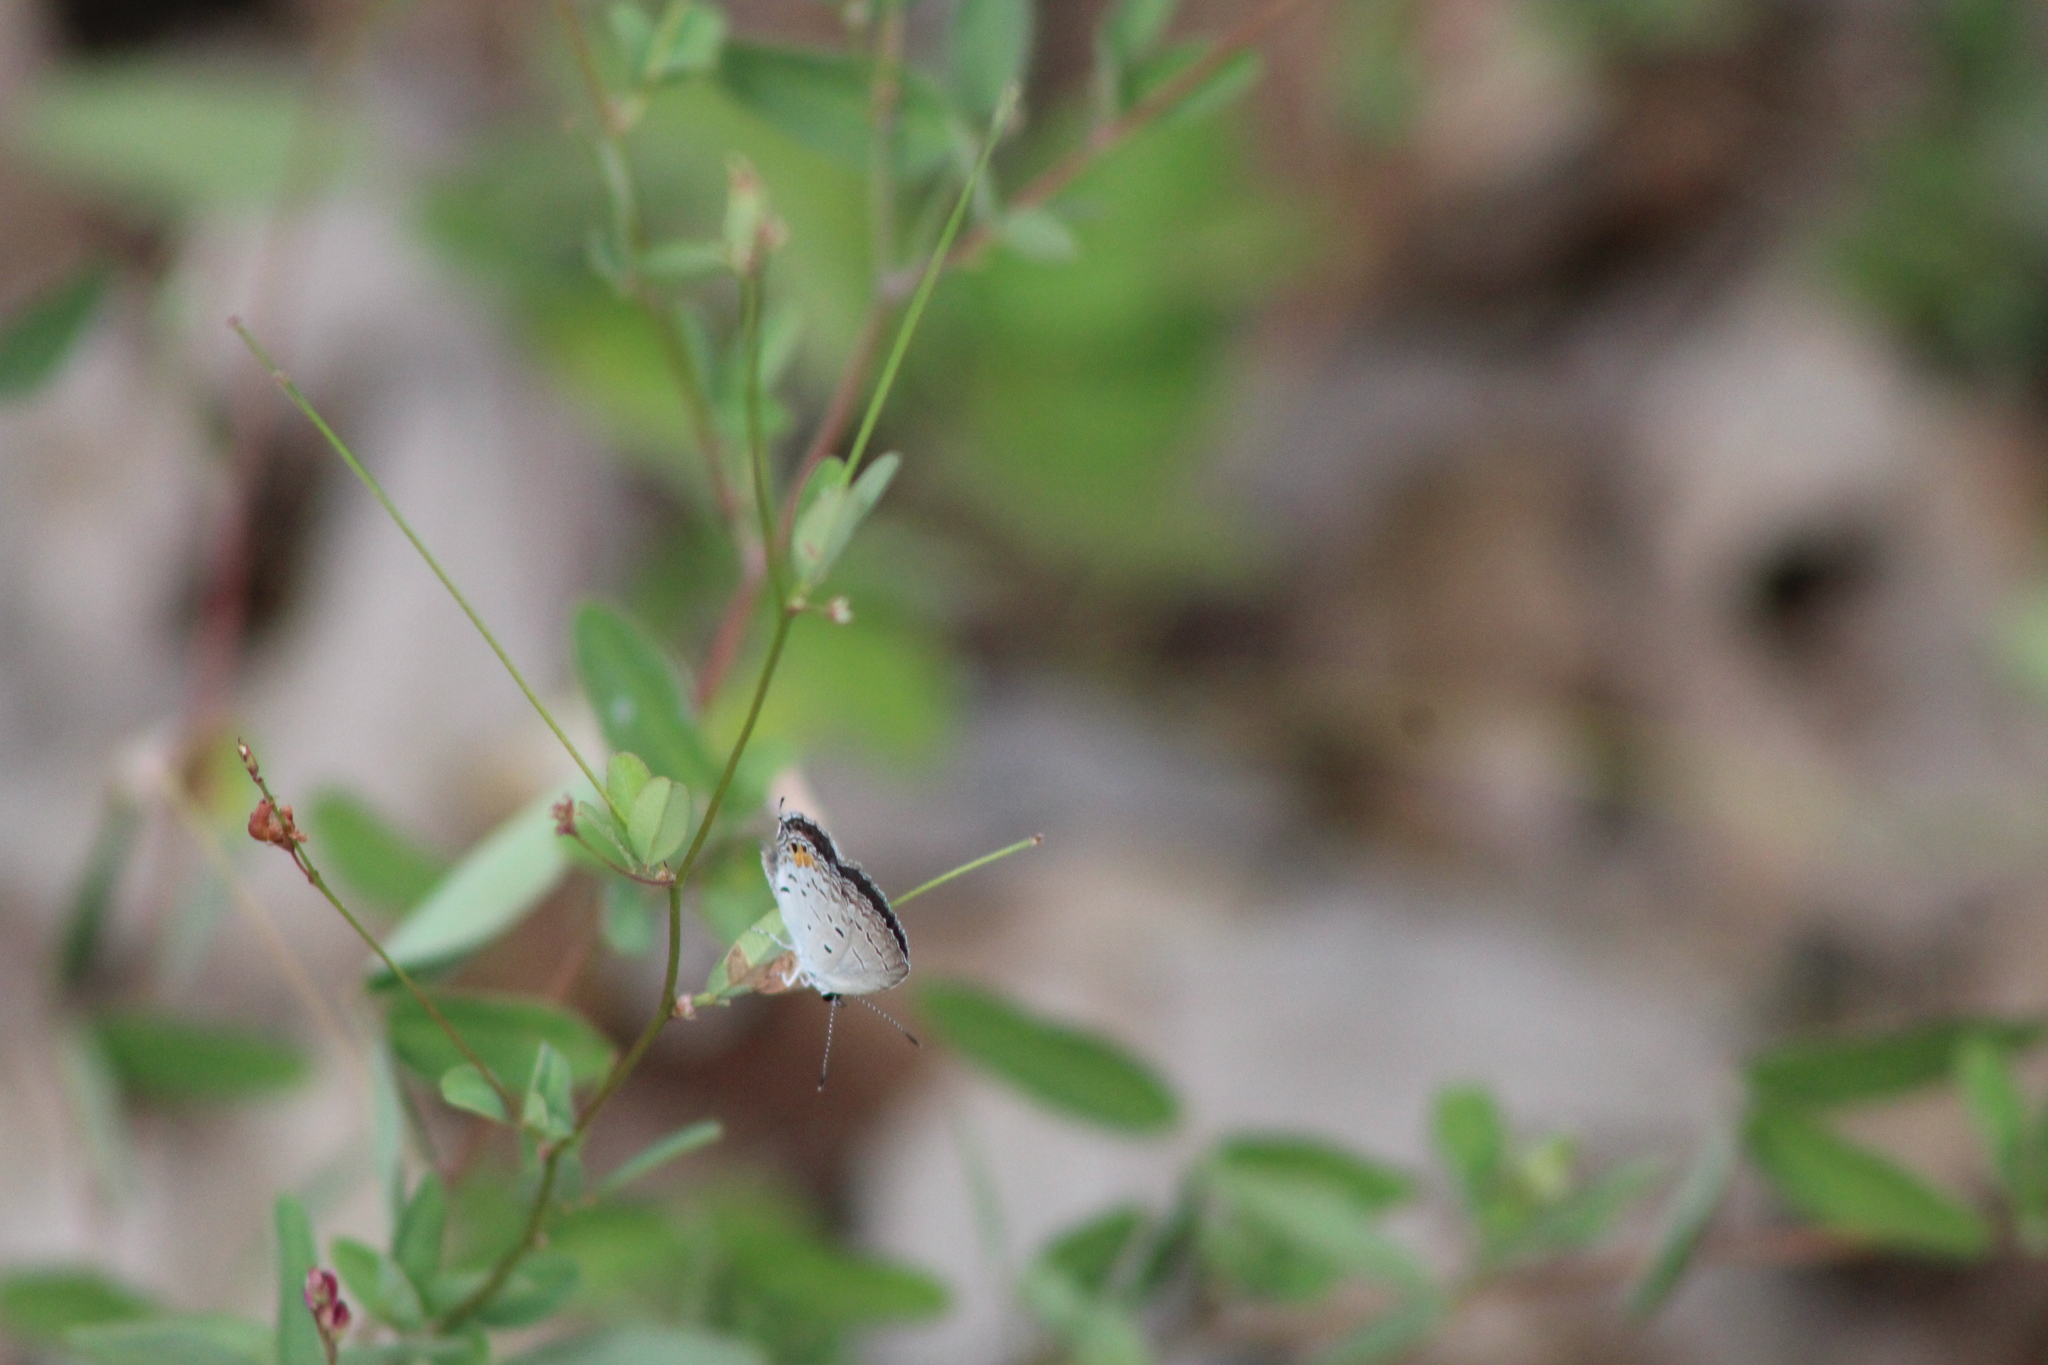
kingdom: Animalia
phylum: Arthropoda
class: Insecta
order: Lepidoptera
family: Lycaenidae
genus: Elkalyce
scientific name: Elkalyce comyntas
